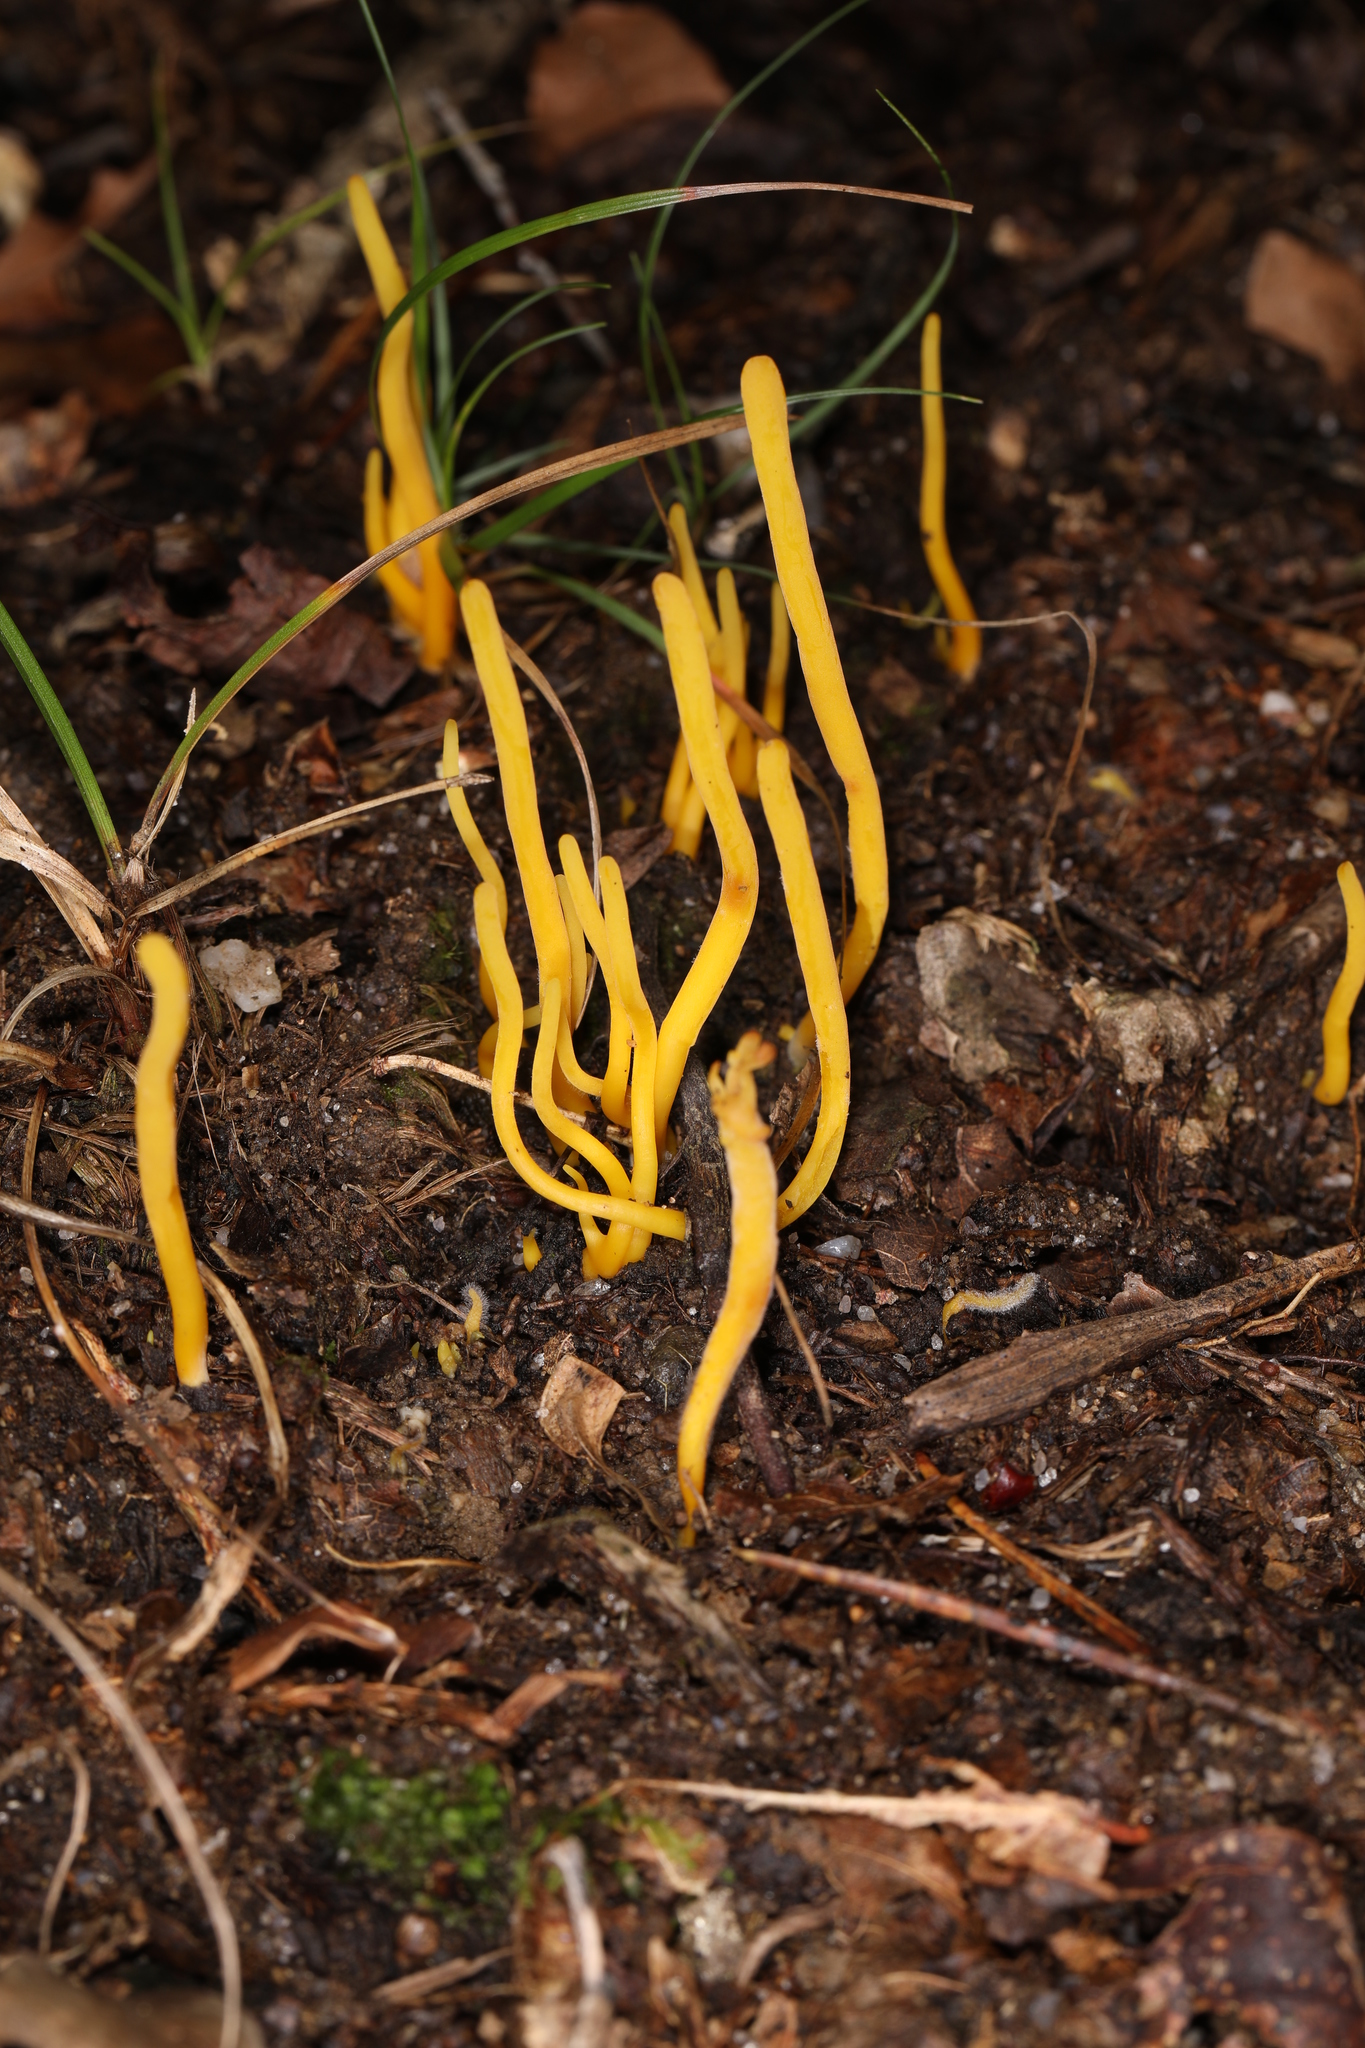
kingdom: Fungi
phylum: Basidiomycota
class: Agaricomycetes
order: Agaricales
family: Clavariaceae
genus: Clavulinopsis
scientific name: Clavulinopsis fusiformis
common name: Golden spindles
